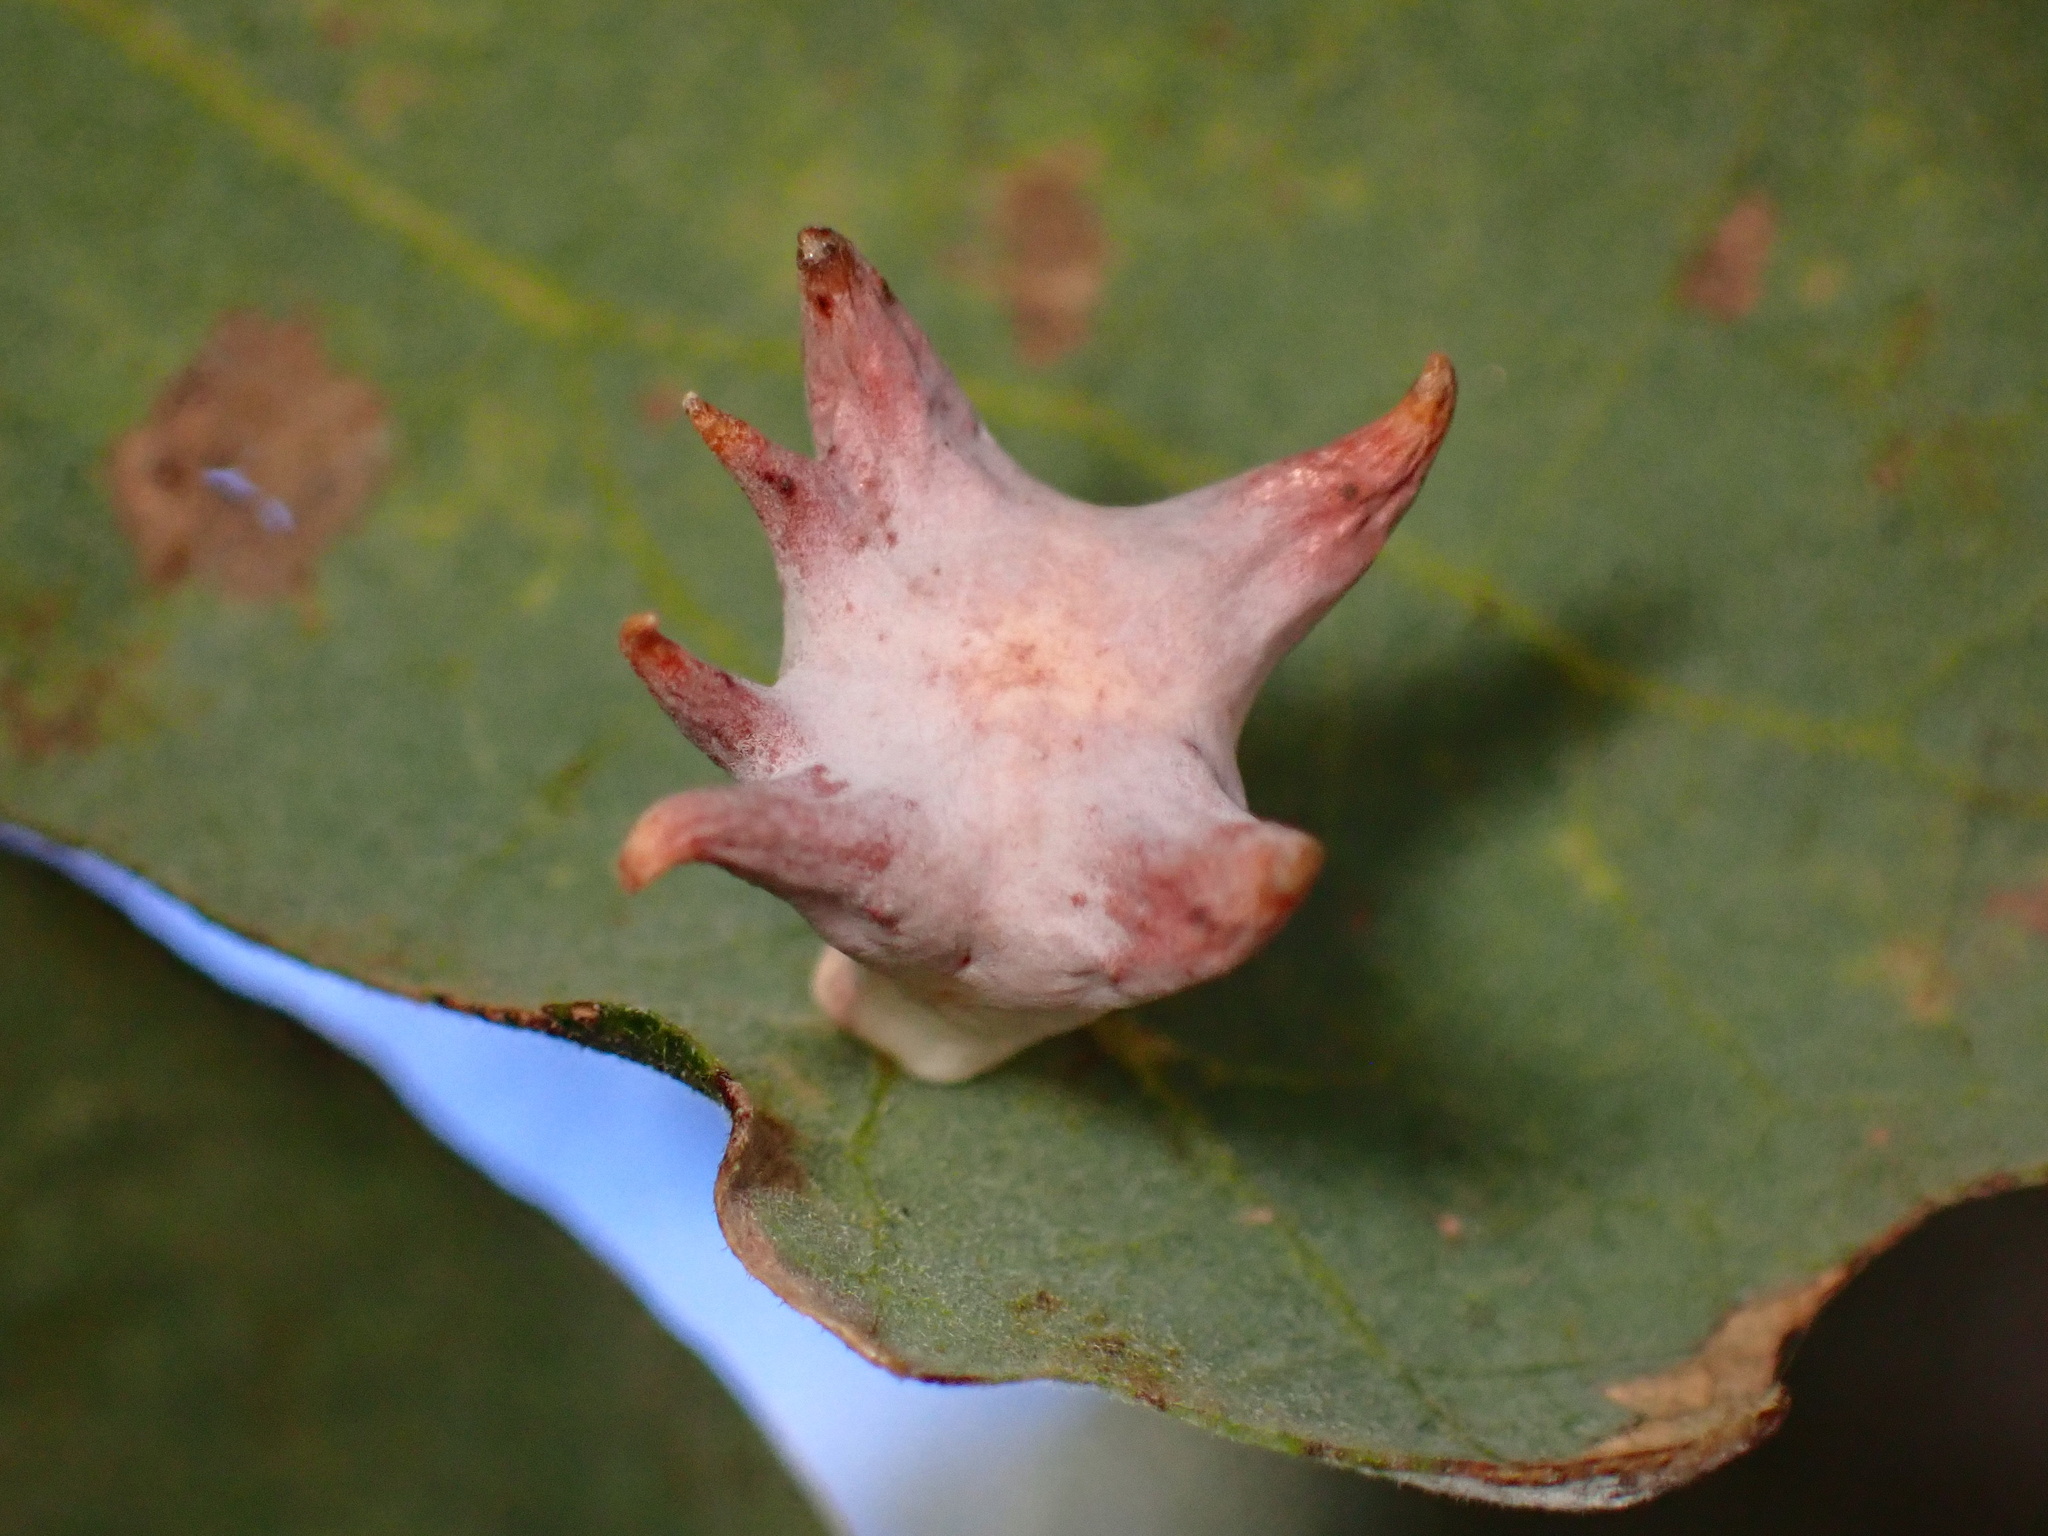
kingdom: Animalia
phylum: Arthropoda
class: Insecta
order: Hymenoptera
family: Cynipidae
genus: Cynips
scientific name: Cynips douglasi
